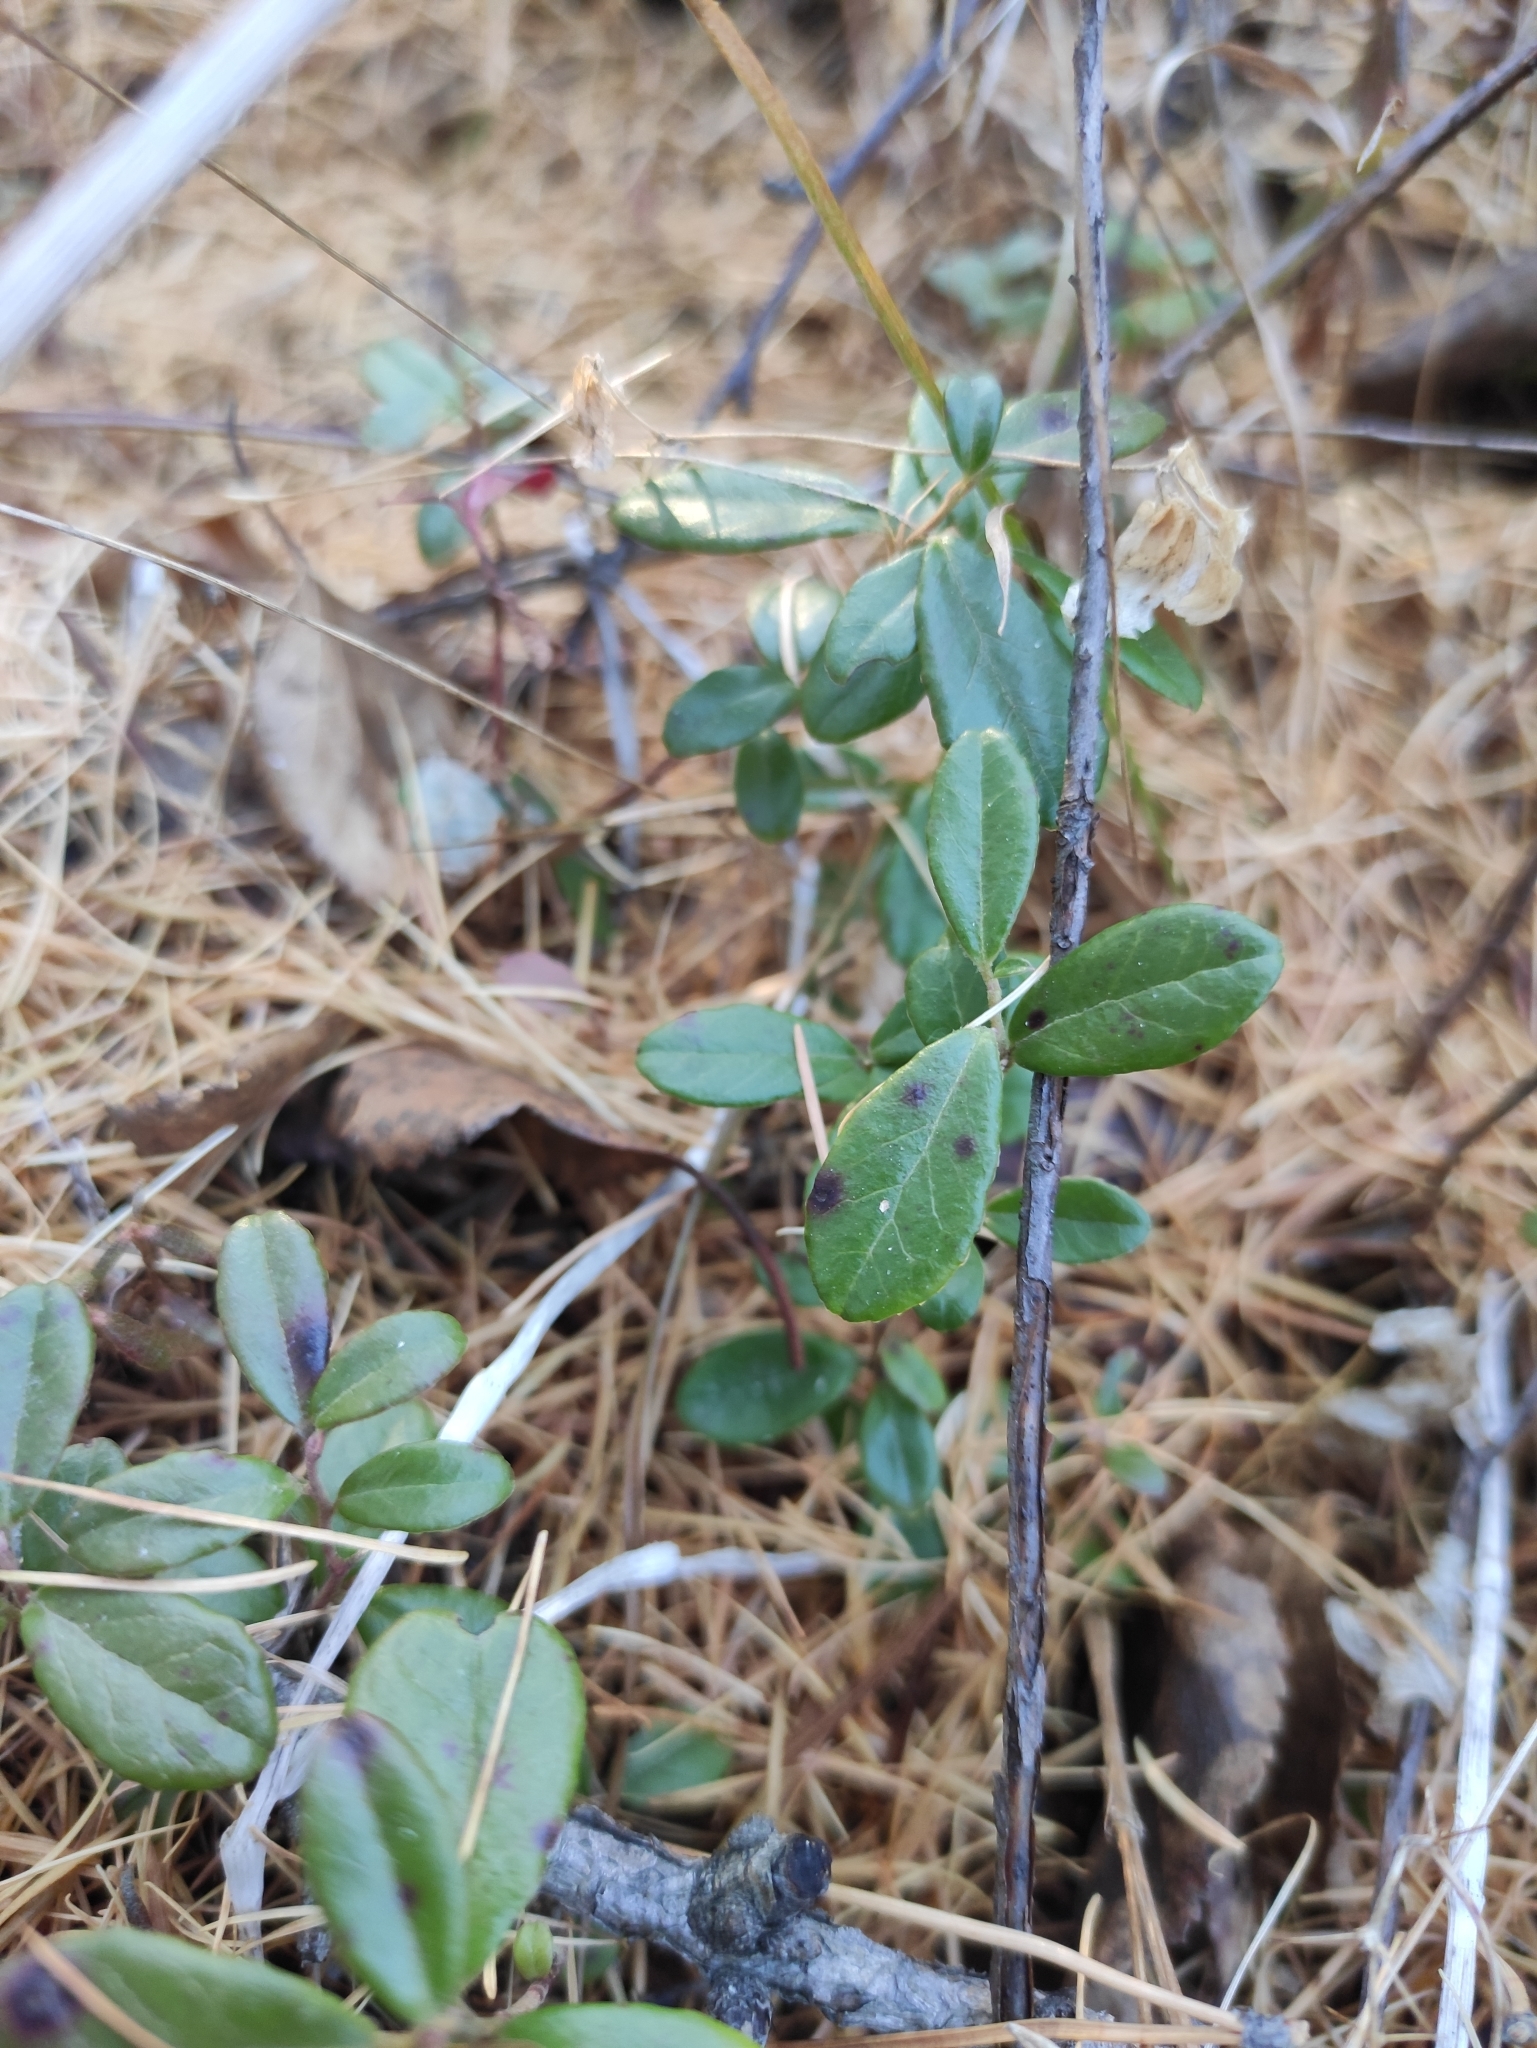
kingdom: Plantae
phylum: Tracheophyta
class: Magnoliopsida
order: Ericales
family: Ericaceae
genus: Vaccinium
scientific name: Vaccinium vitis-idaea
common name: Cowberry
